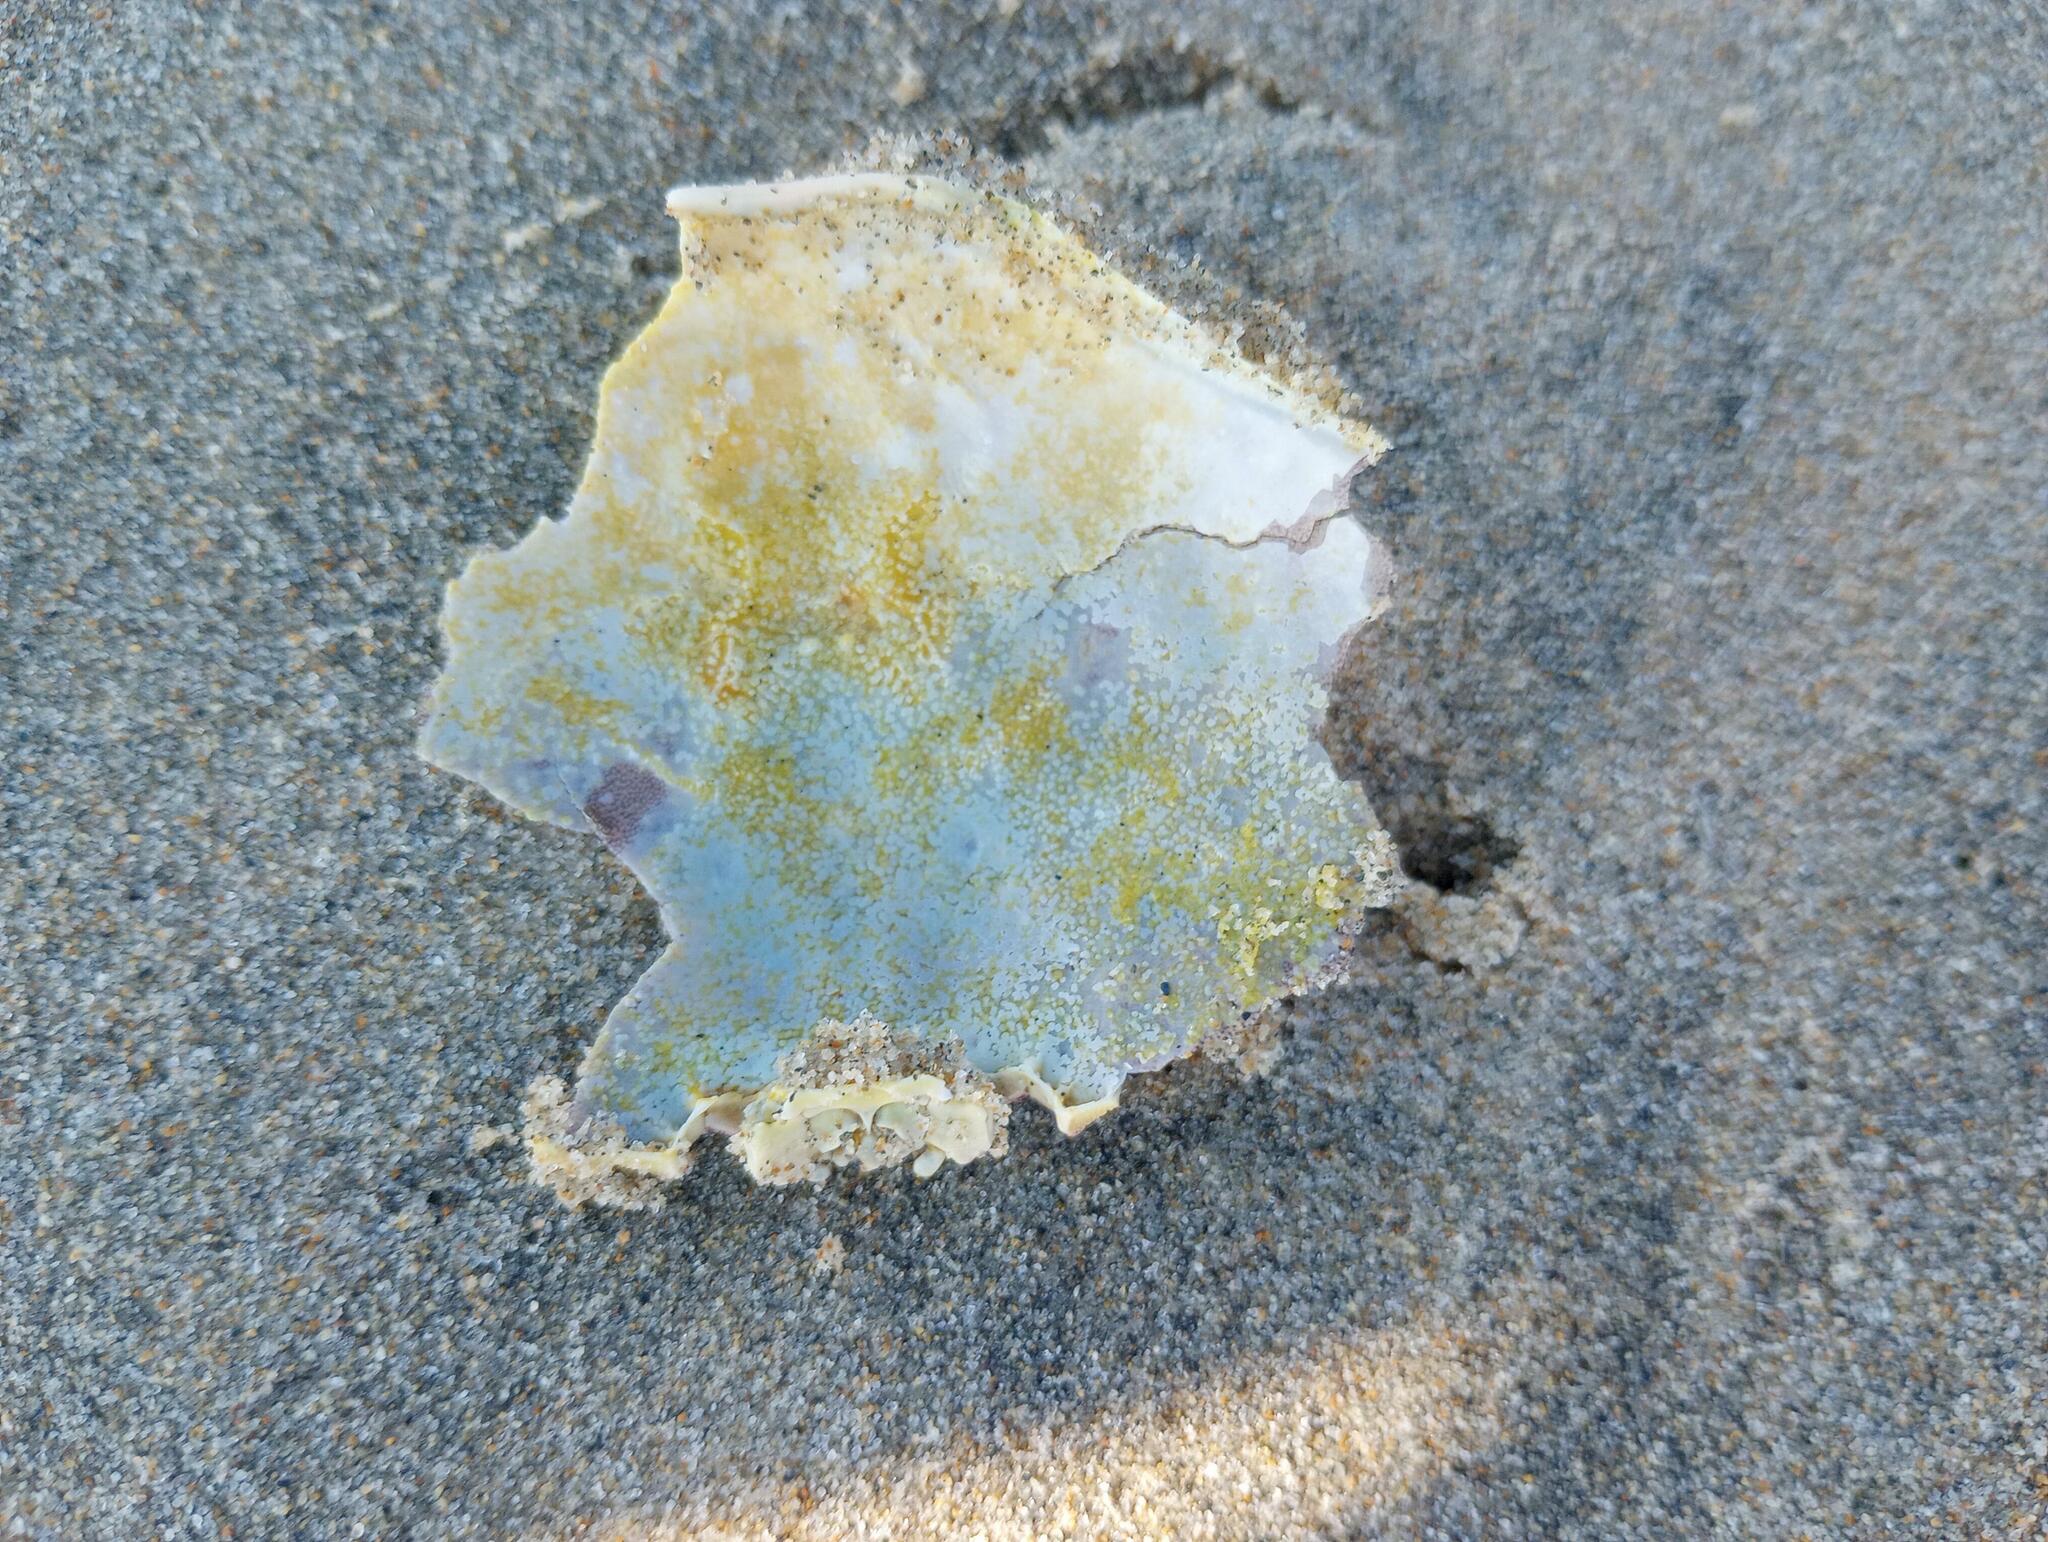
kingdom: Animalia
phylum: Arthropoda
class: Malacostraca
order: Decapoda
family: Cancridae
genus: Metacarcinus
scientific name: Metacarcinus gracilis
